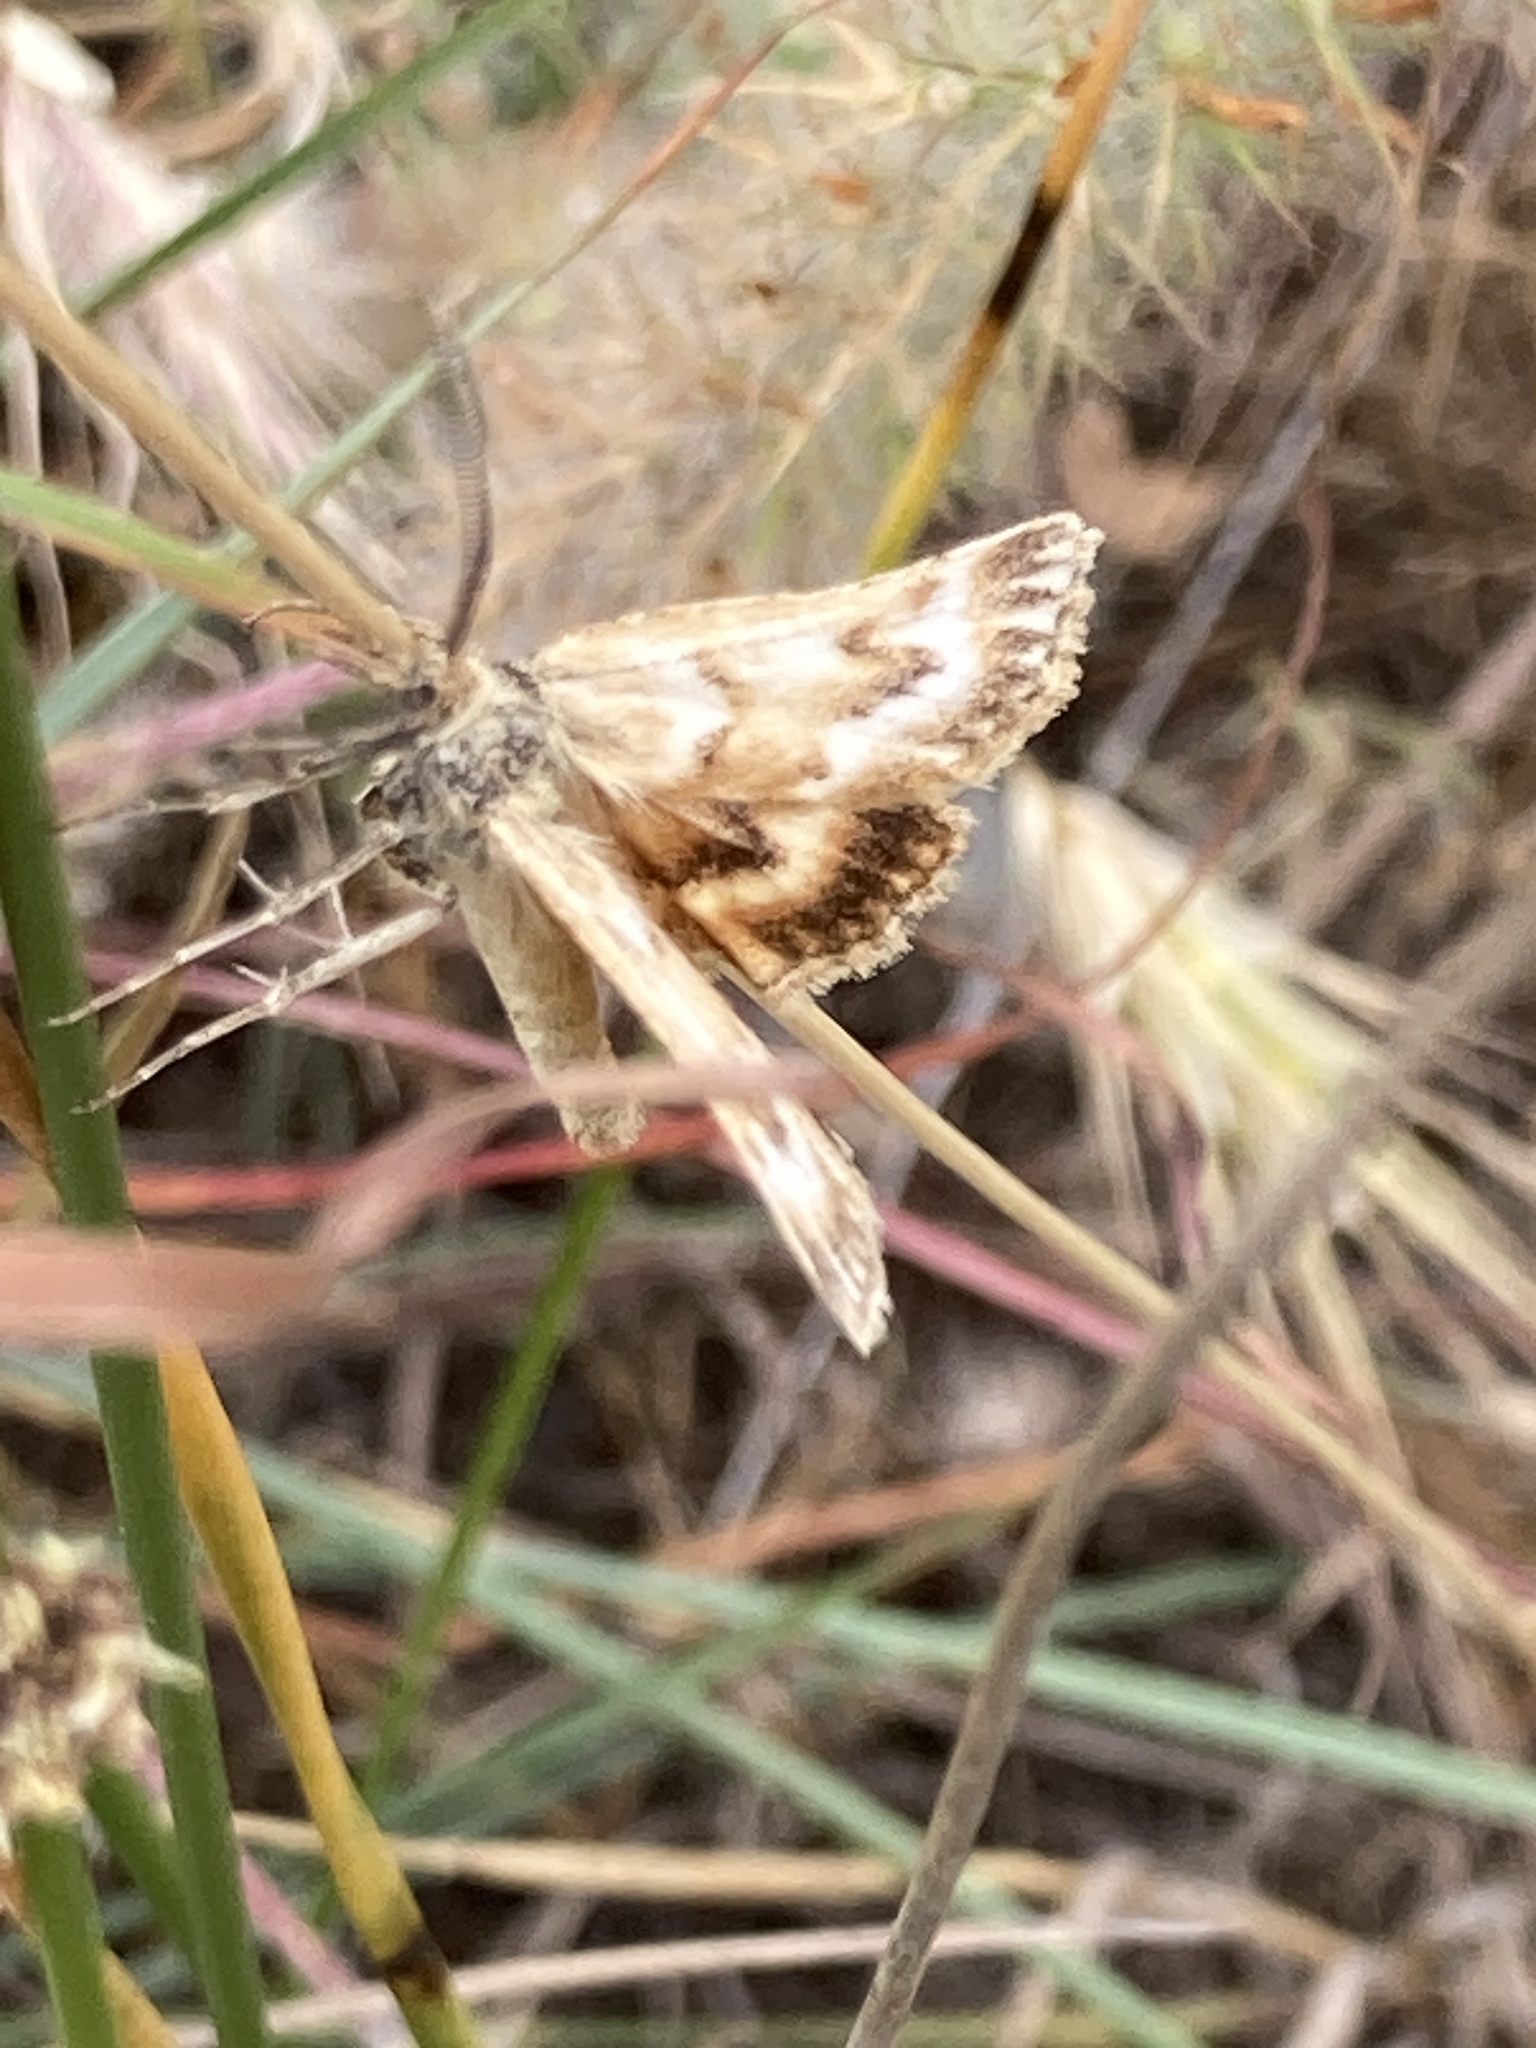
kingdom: Animalia
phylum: Arthropoda
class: Insecta
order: Lepidoptera
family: Pyralidae
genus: Synaphe
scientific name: Synaphe moldavica
